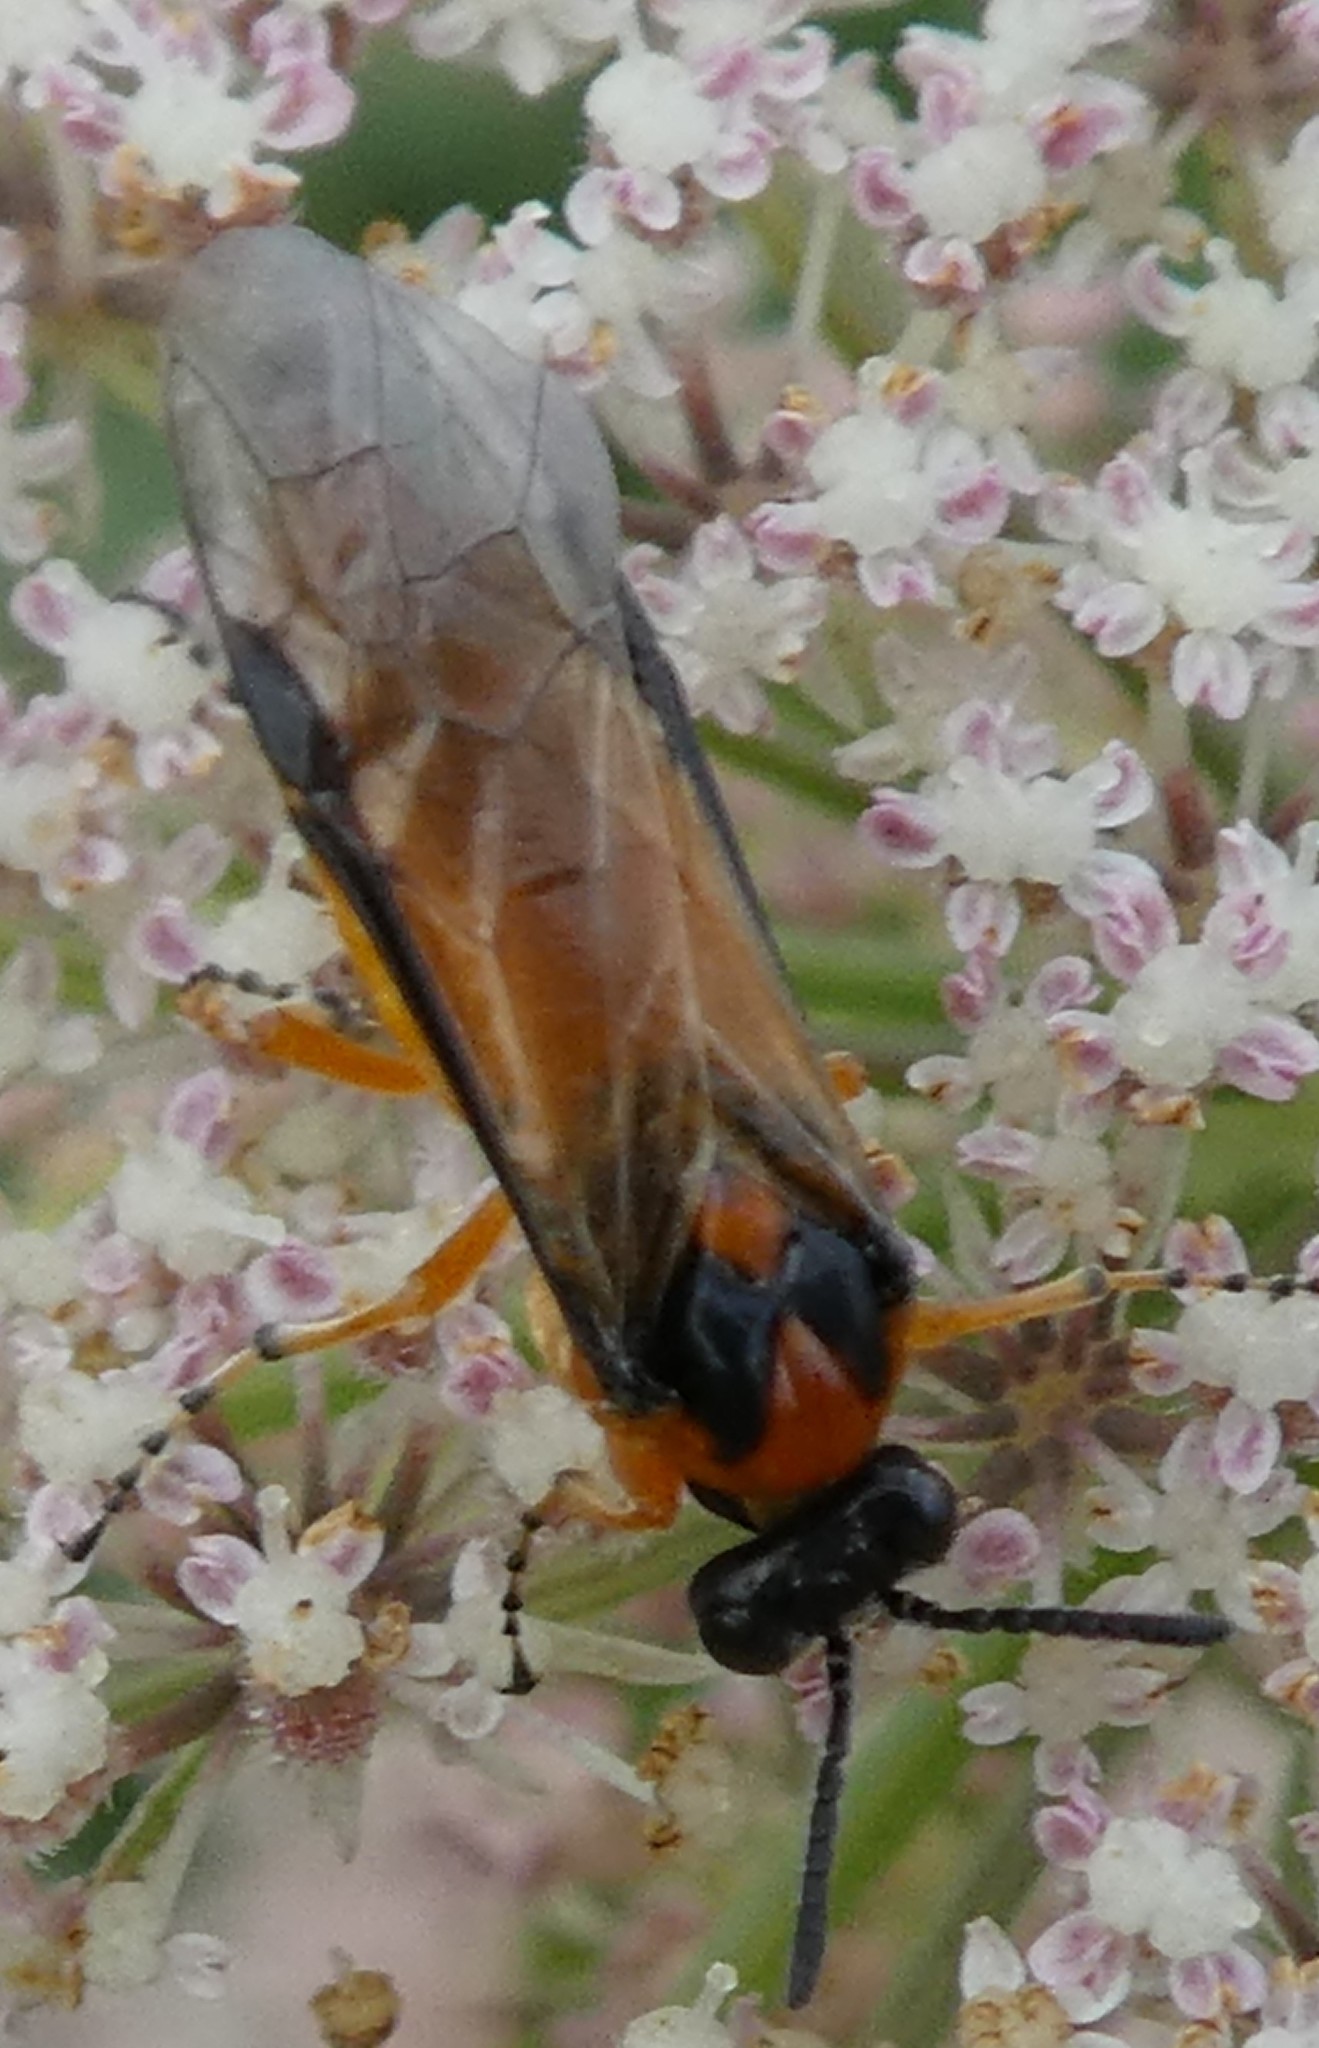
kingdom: Animalia
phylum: Arthropoda
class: Insecta
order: Hymenoptera
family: Tenthredinidae
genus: Athalia
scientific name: Athalia rosae
